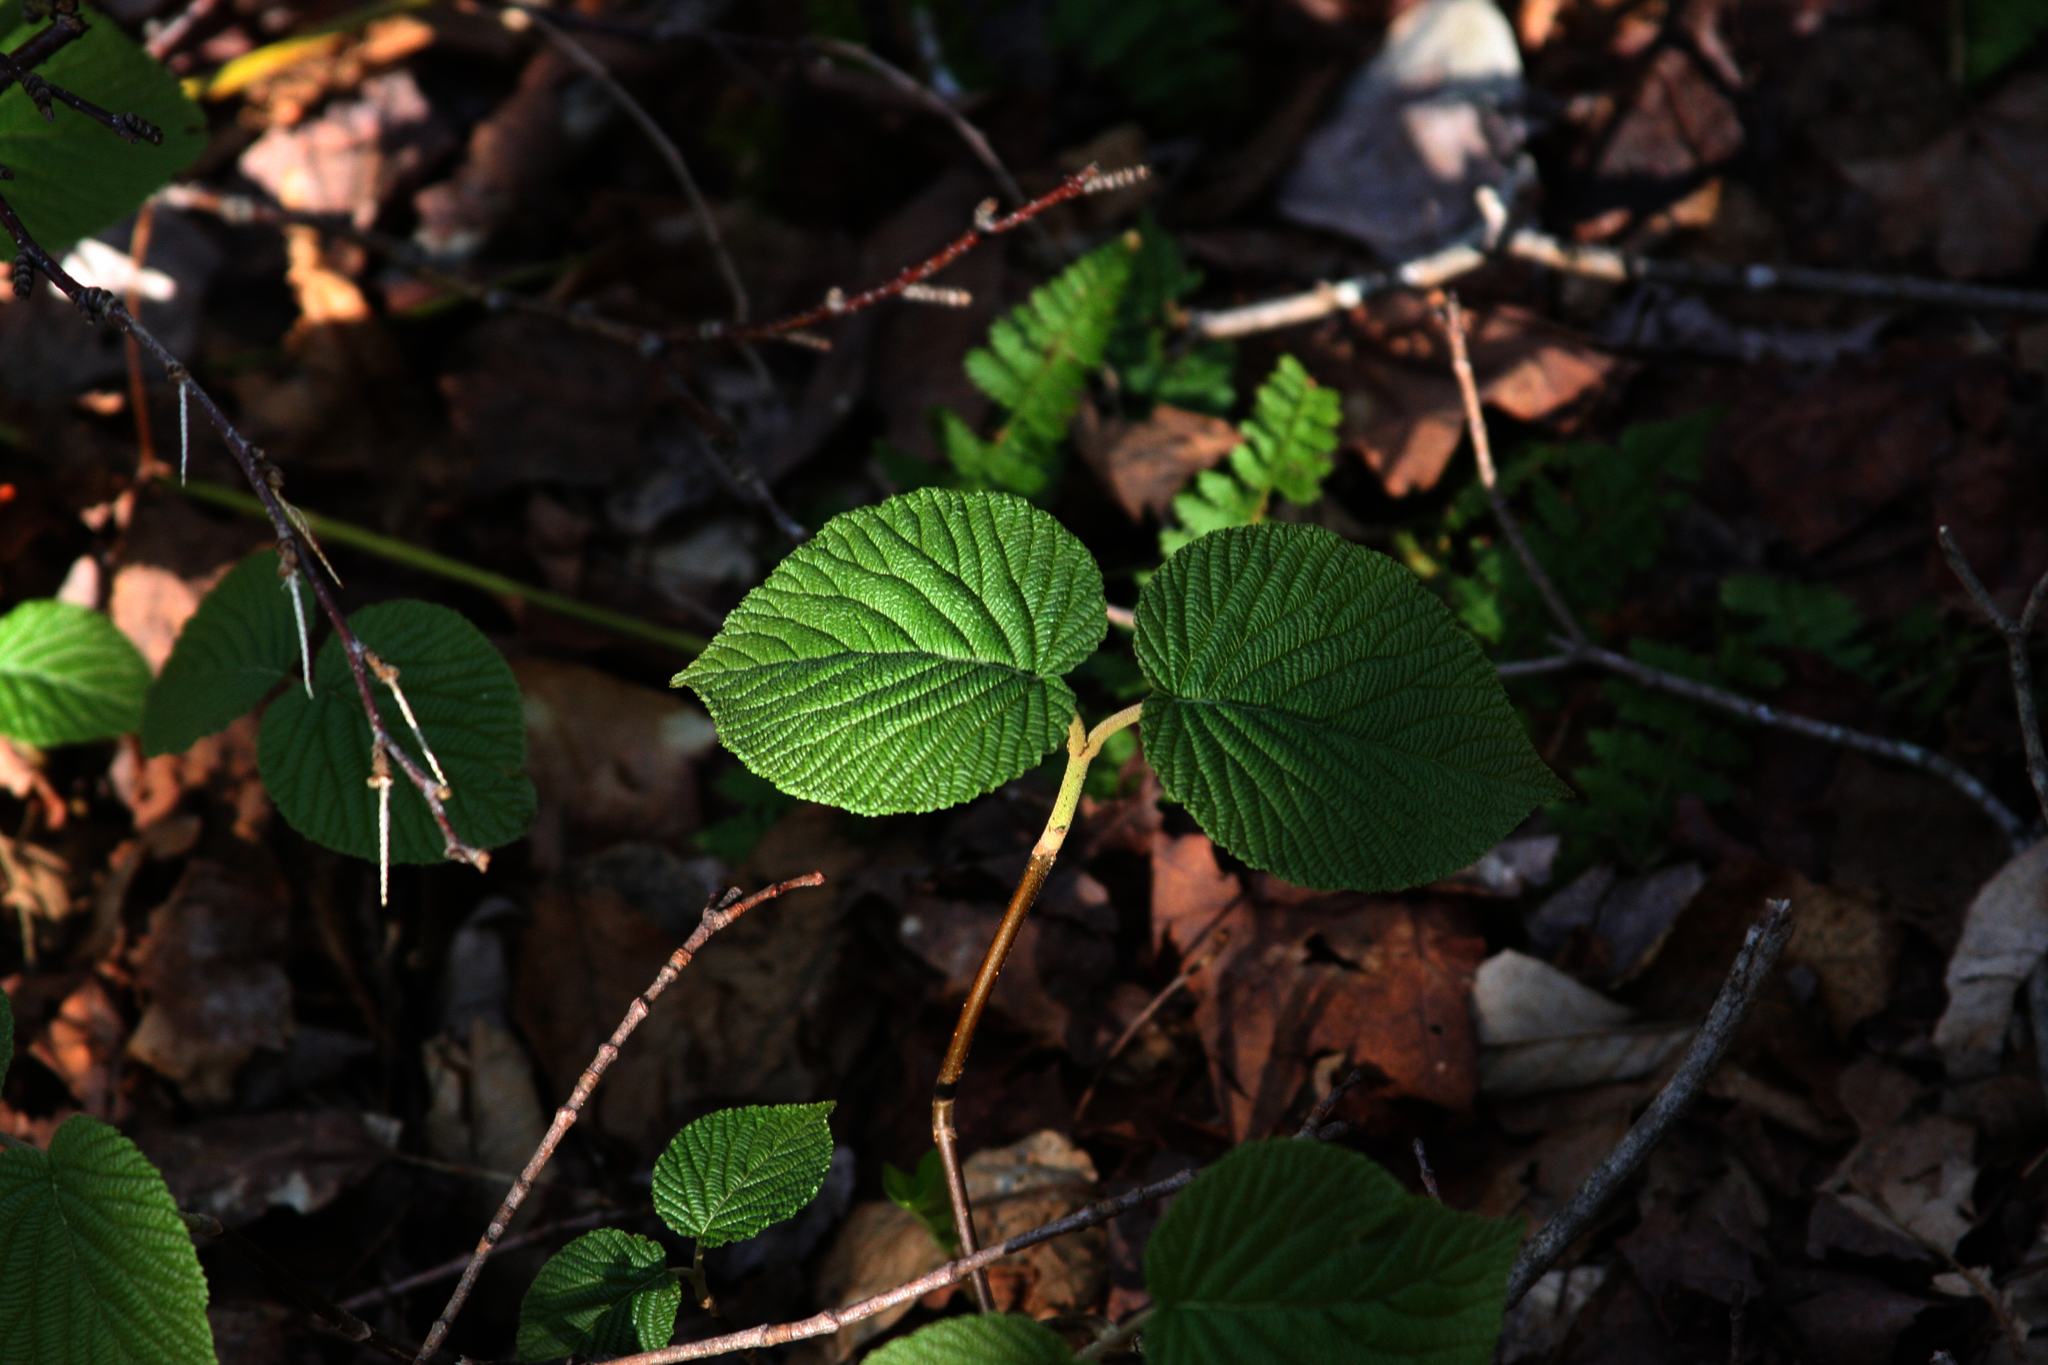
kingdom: Plantae
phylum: Tracheophyta
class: Magnoliopsida
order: Dipsacales
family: Viburnaceae
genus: Viburnum
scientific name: Viburnum lantanoides
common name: Hobblebush
